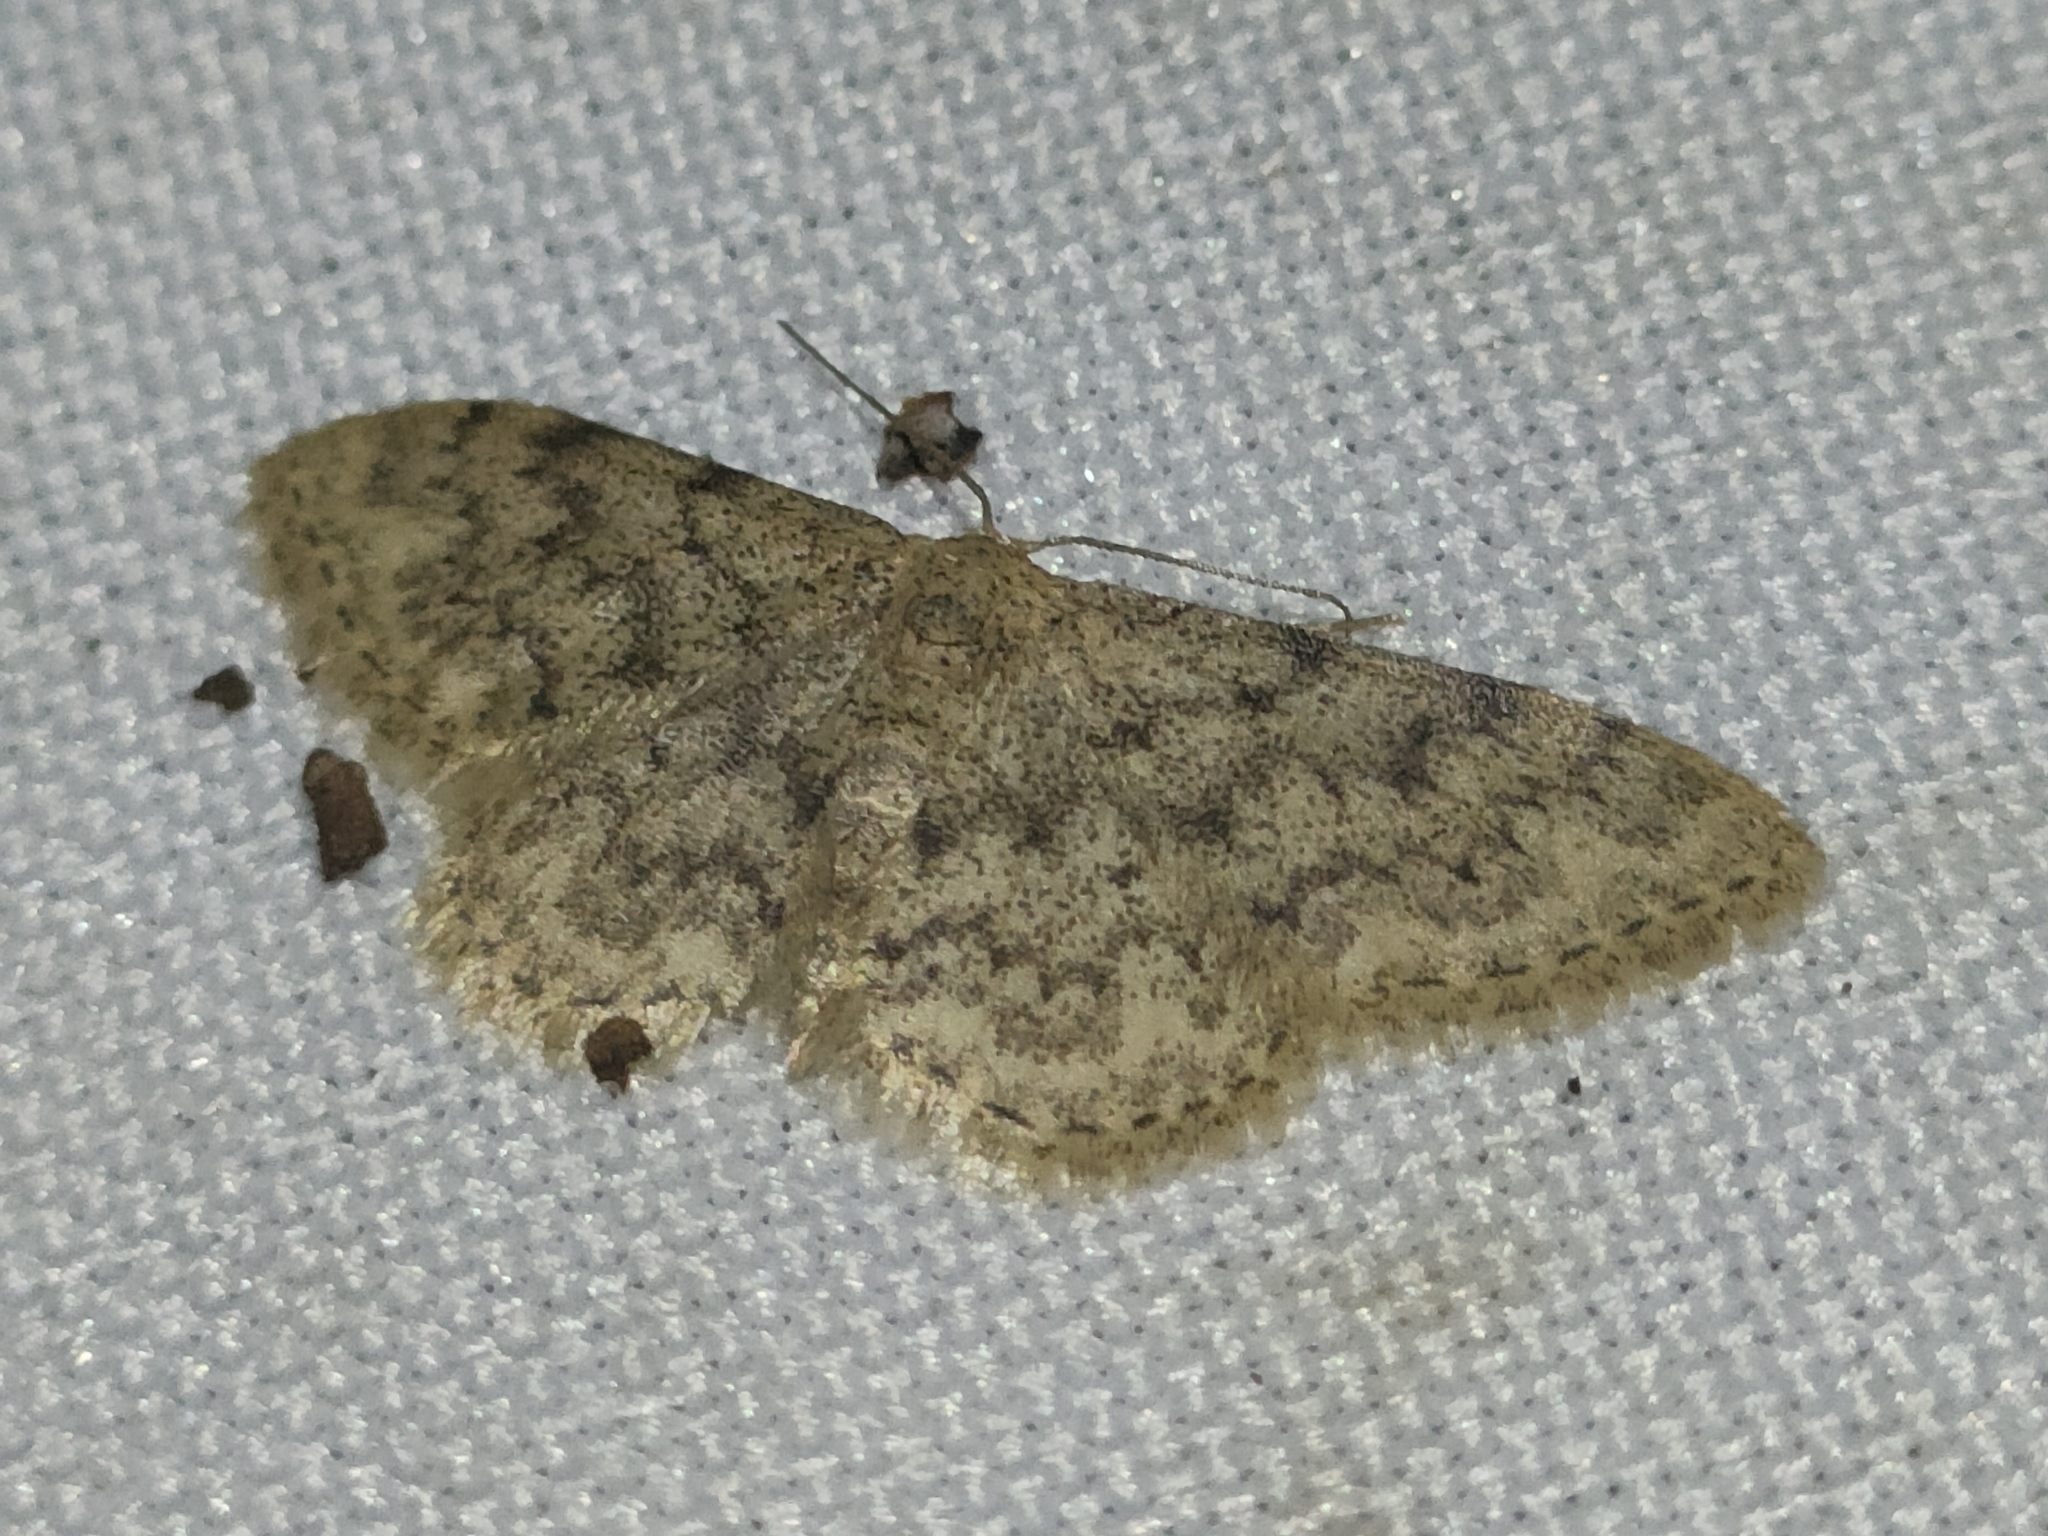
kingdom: Animalia
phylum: Arthropoda
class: Insecta
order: Lepidoptera
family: Geometridae
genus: Idaea
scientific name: Idaea cervantaria
